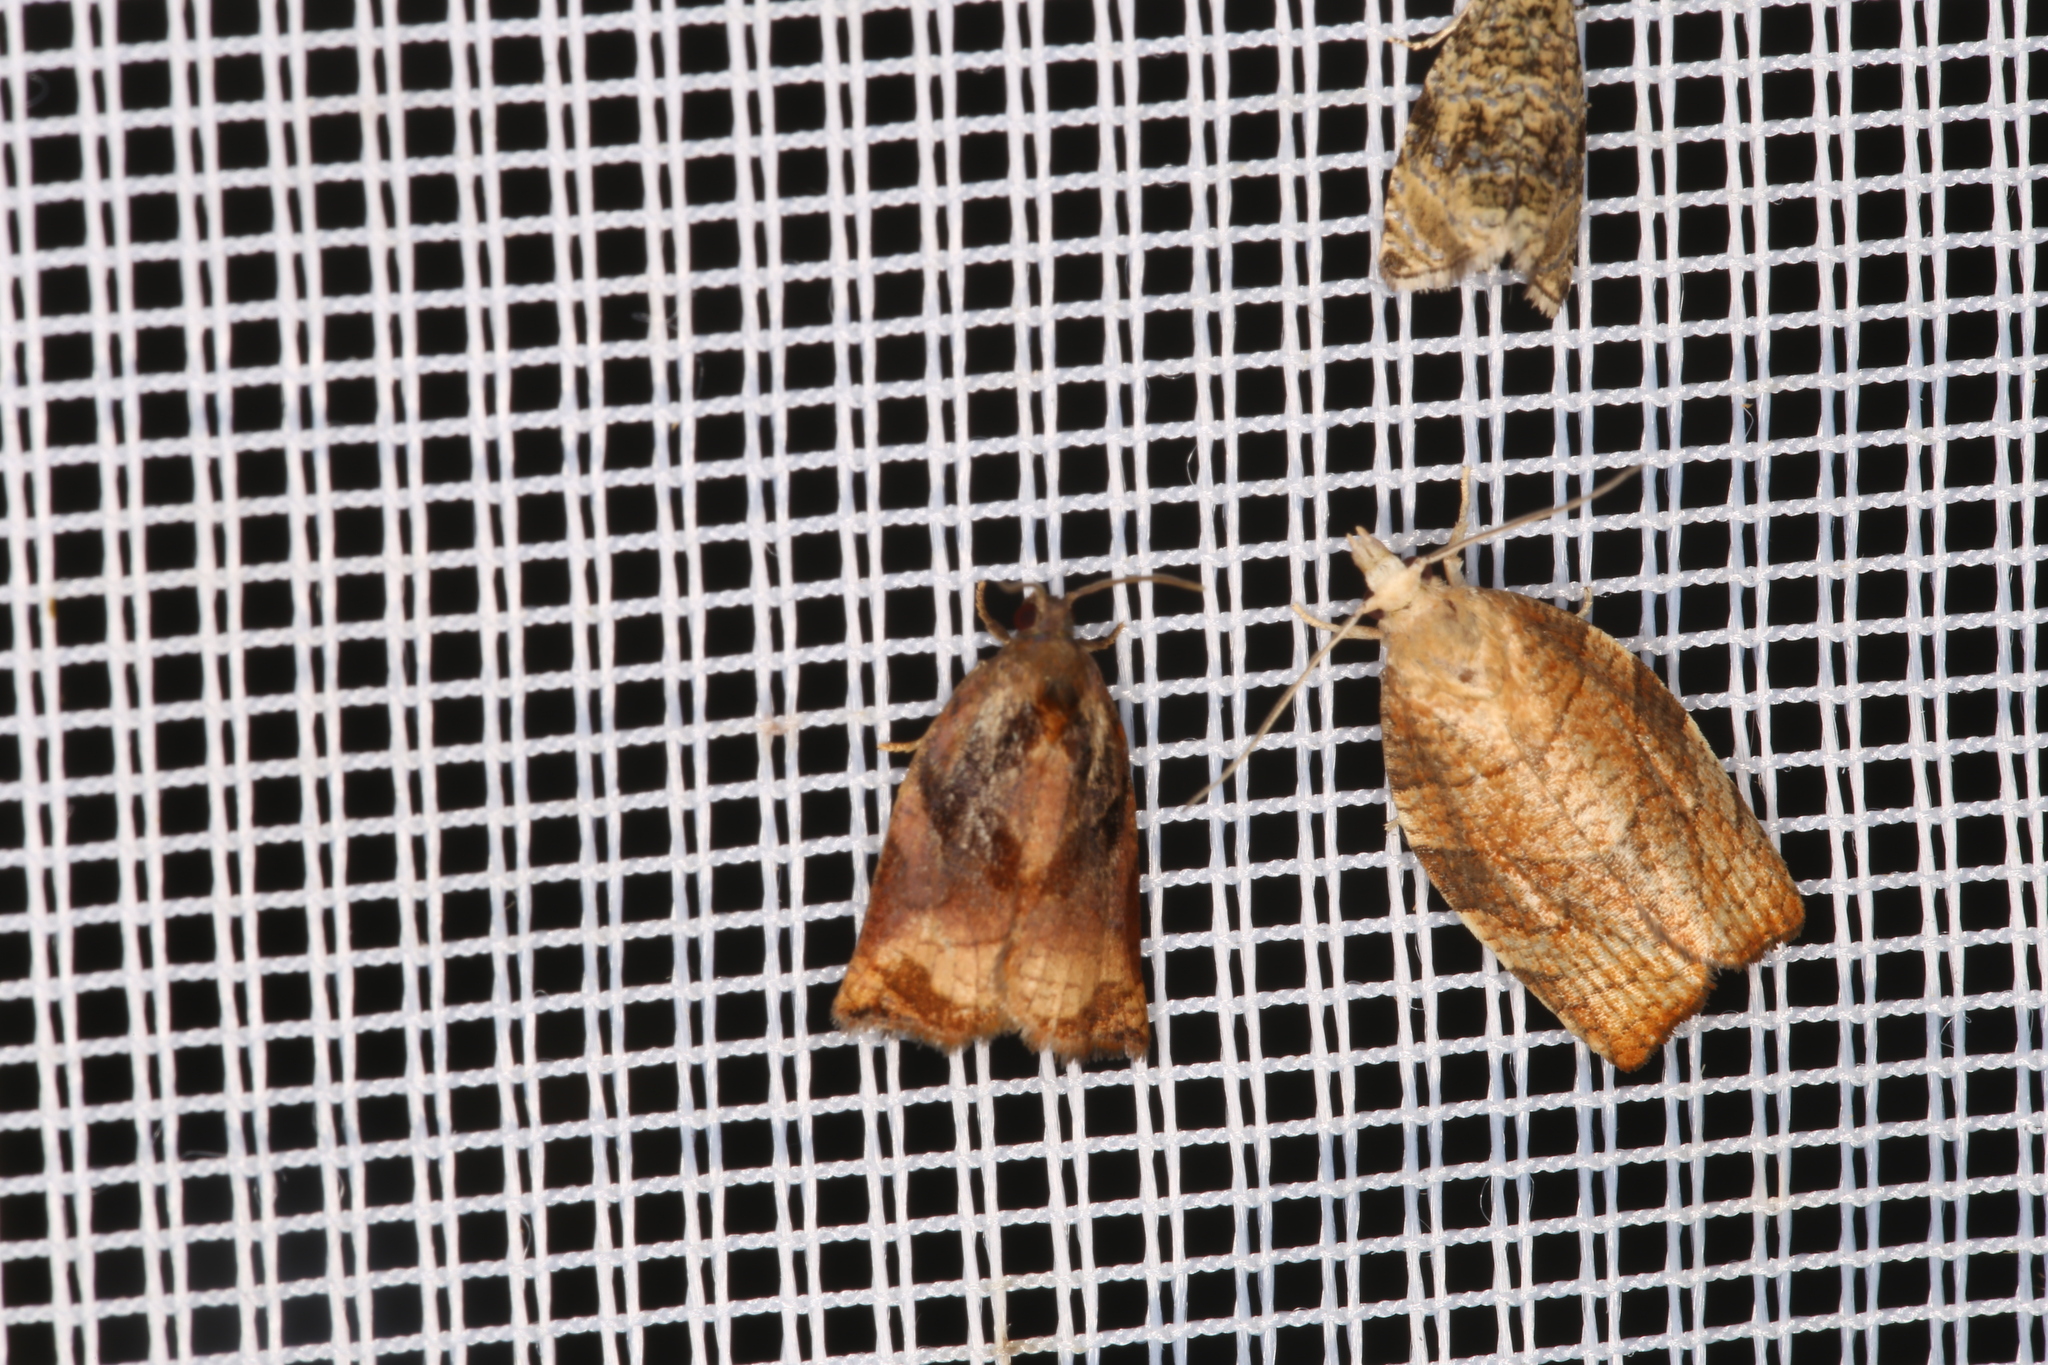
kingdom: Animalia
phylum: Arthropoda
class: Insecta
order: Lepidoptera
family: Tortricidae
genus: Archips
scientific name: Archips podana
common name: Large fruit-tree tortrix
